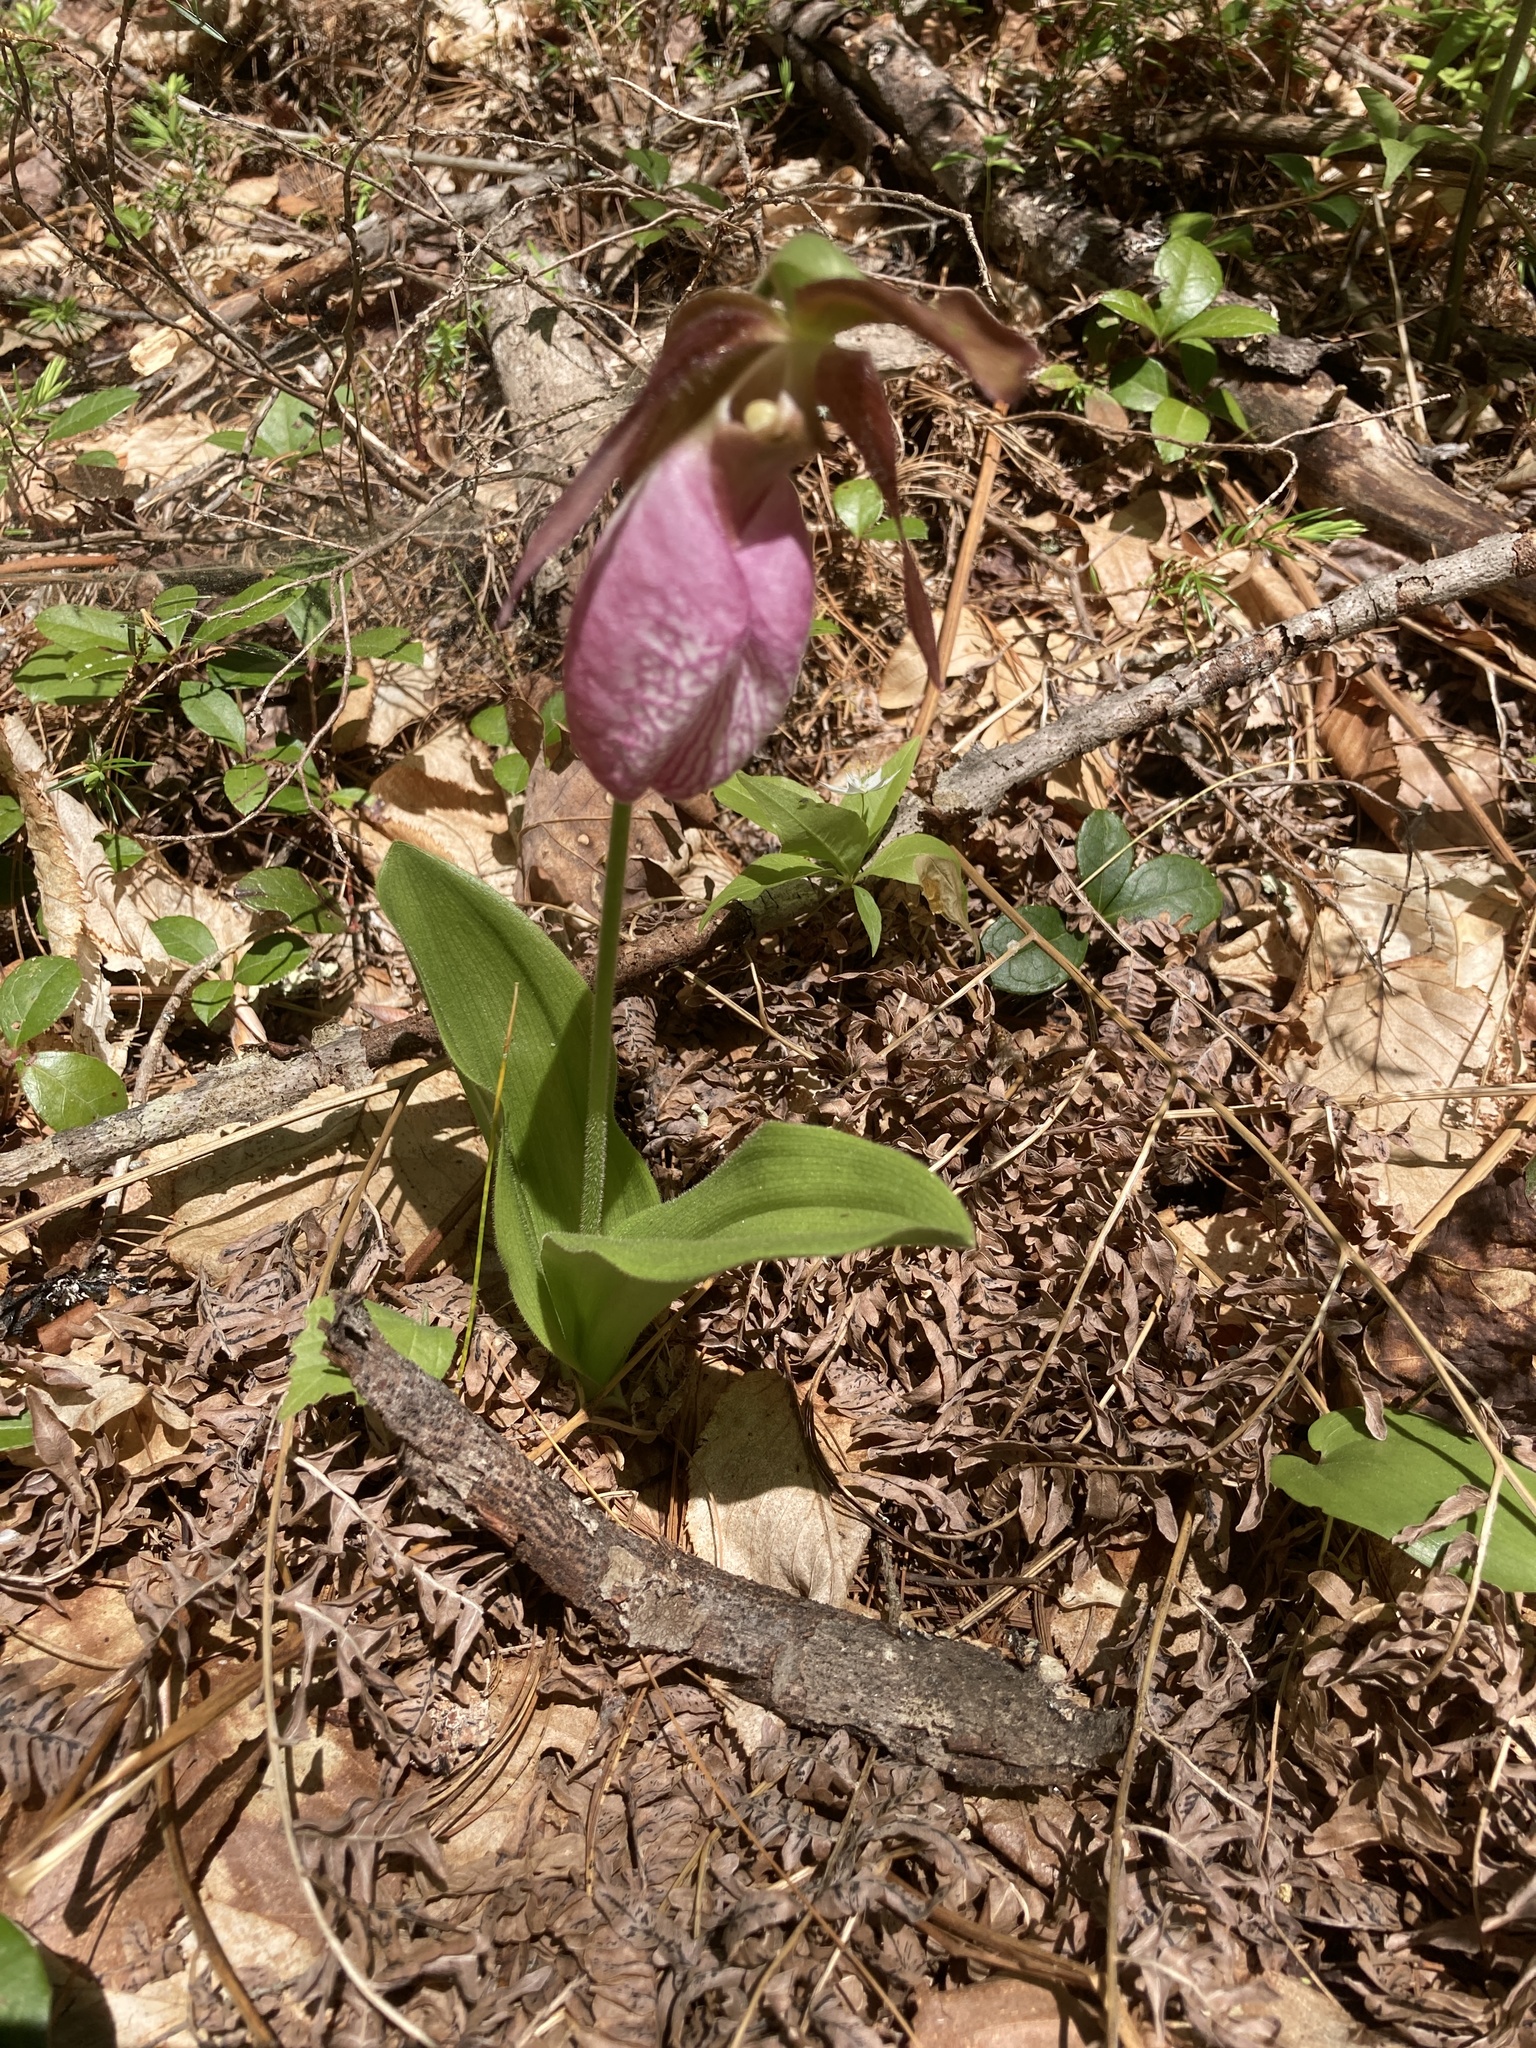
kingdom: Plantae
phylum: Tracheophyta
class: Liliopsida
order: Asparagales
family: Orchidaceae
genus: Cypripedium
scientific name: Cypripedium acaule
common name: Pink lady's-slipper
